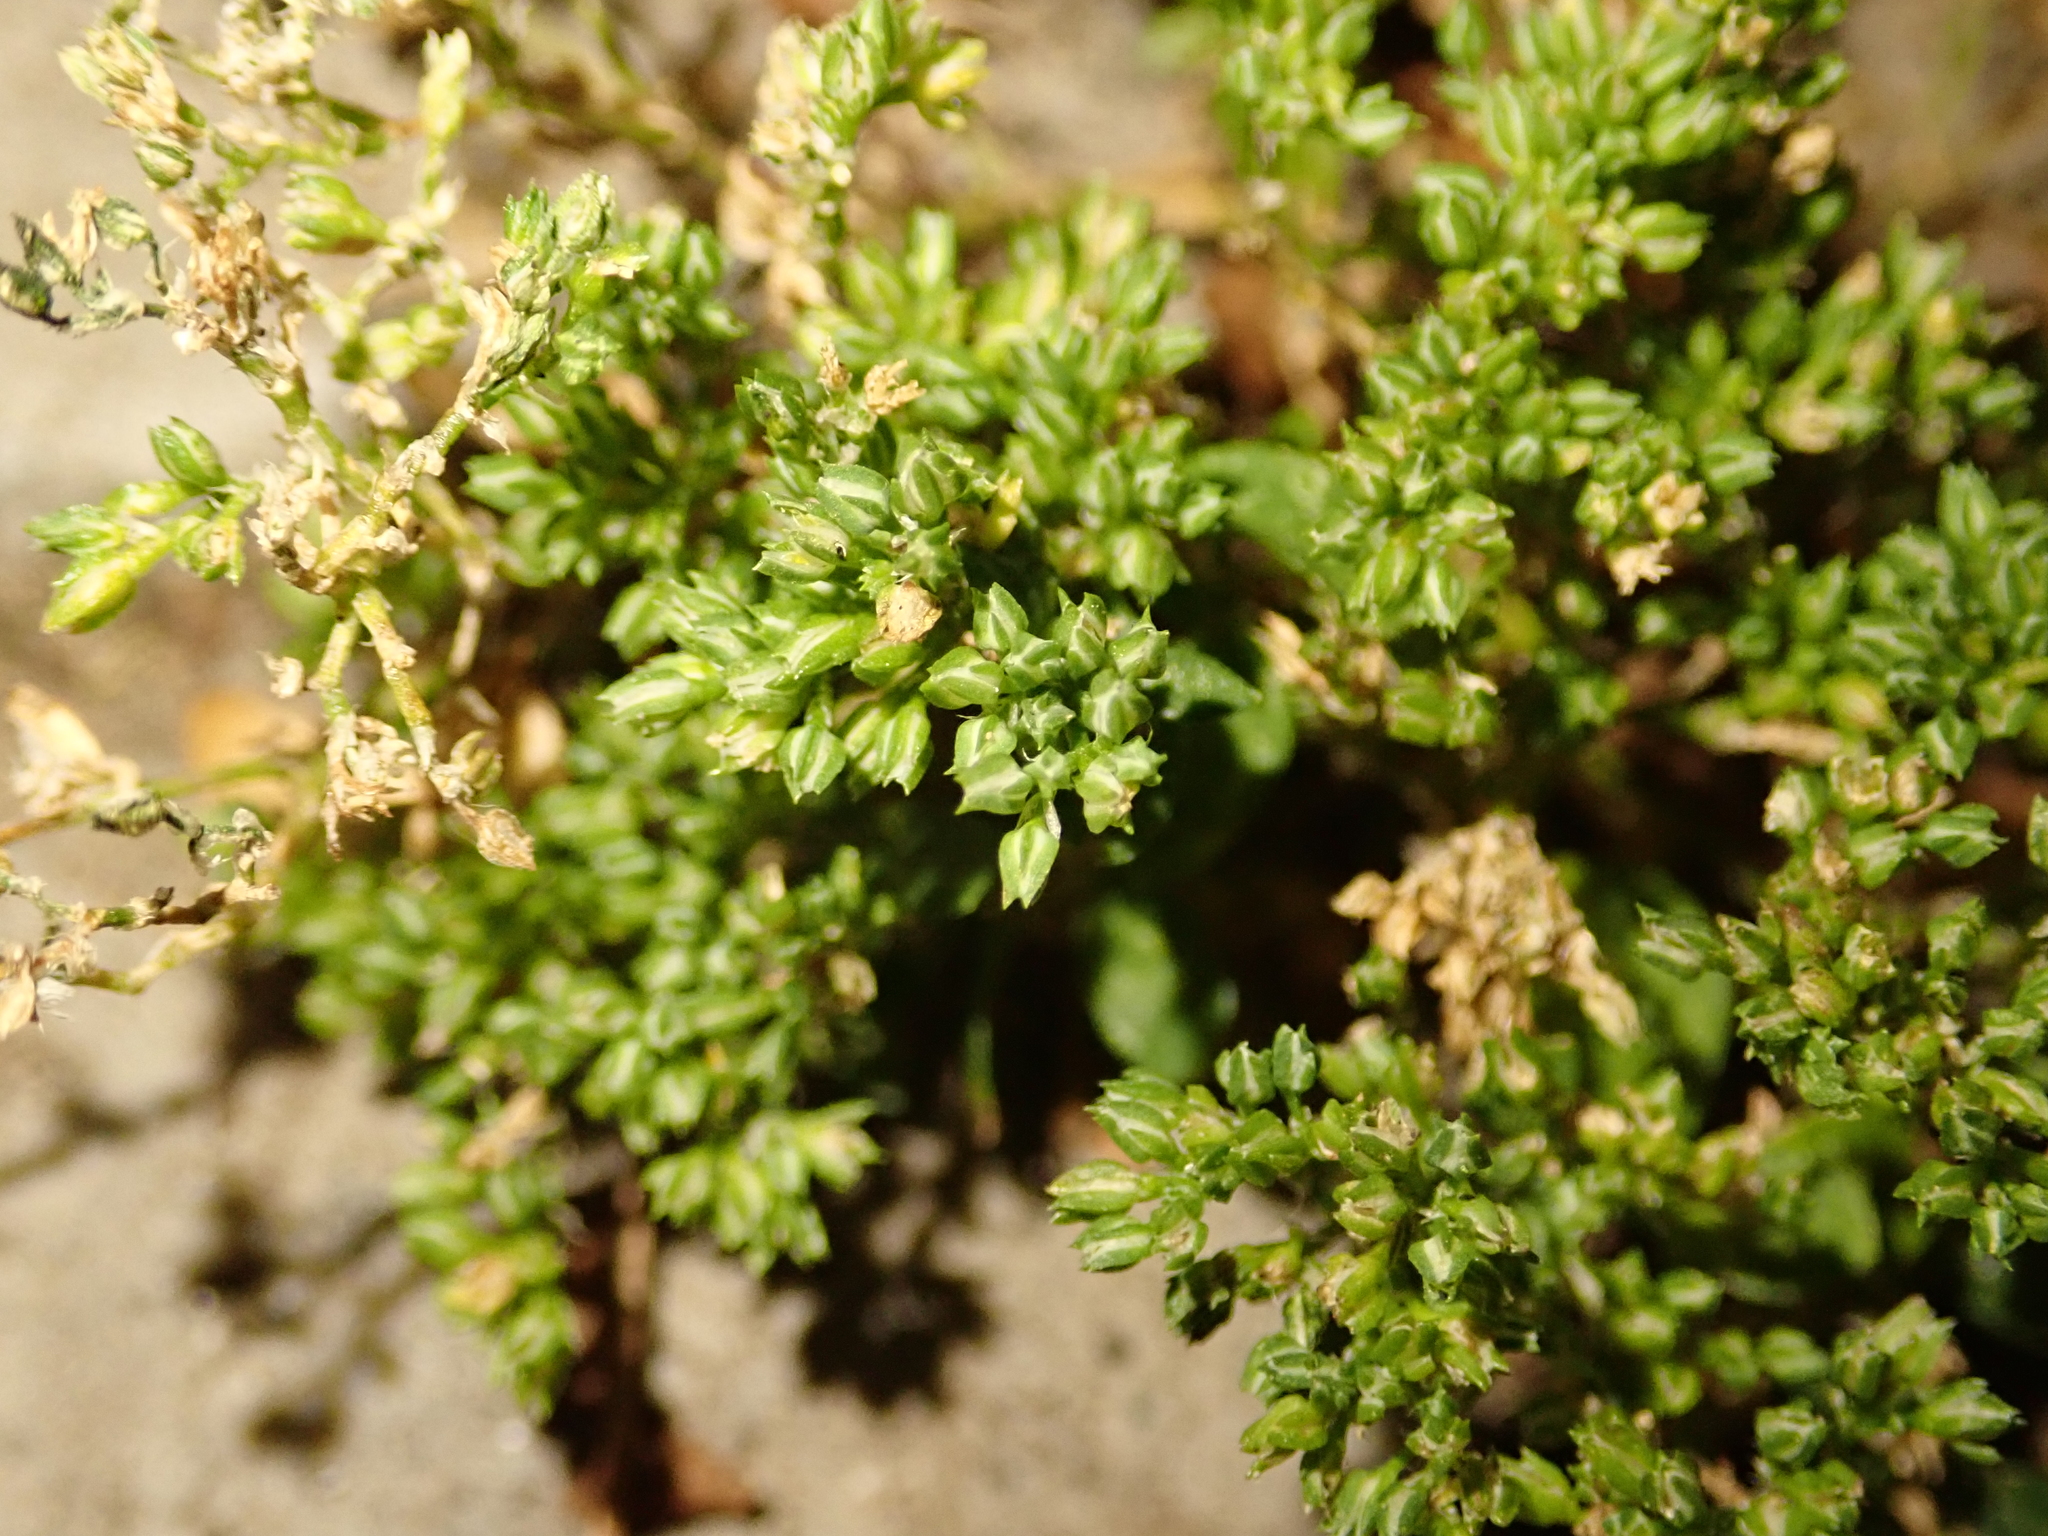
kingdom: Plantae
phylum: Tracheophyta
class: Magnoliopsida
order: Caryophyllales
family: Caryophyllaceae
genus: Polycarpon
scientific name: Polycarpon tetraphyllum
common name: Four-leaved all-seed
